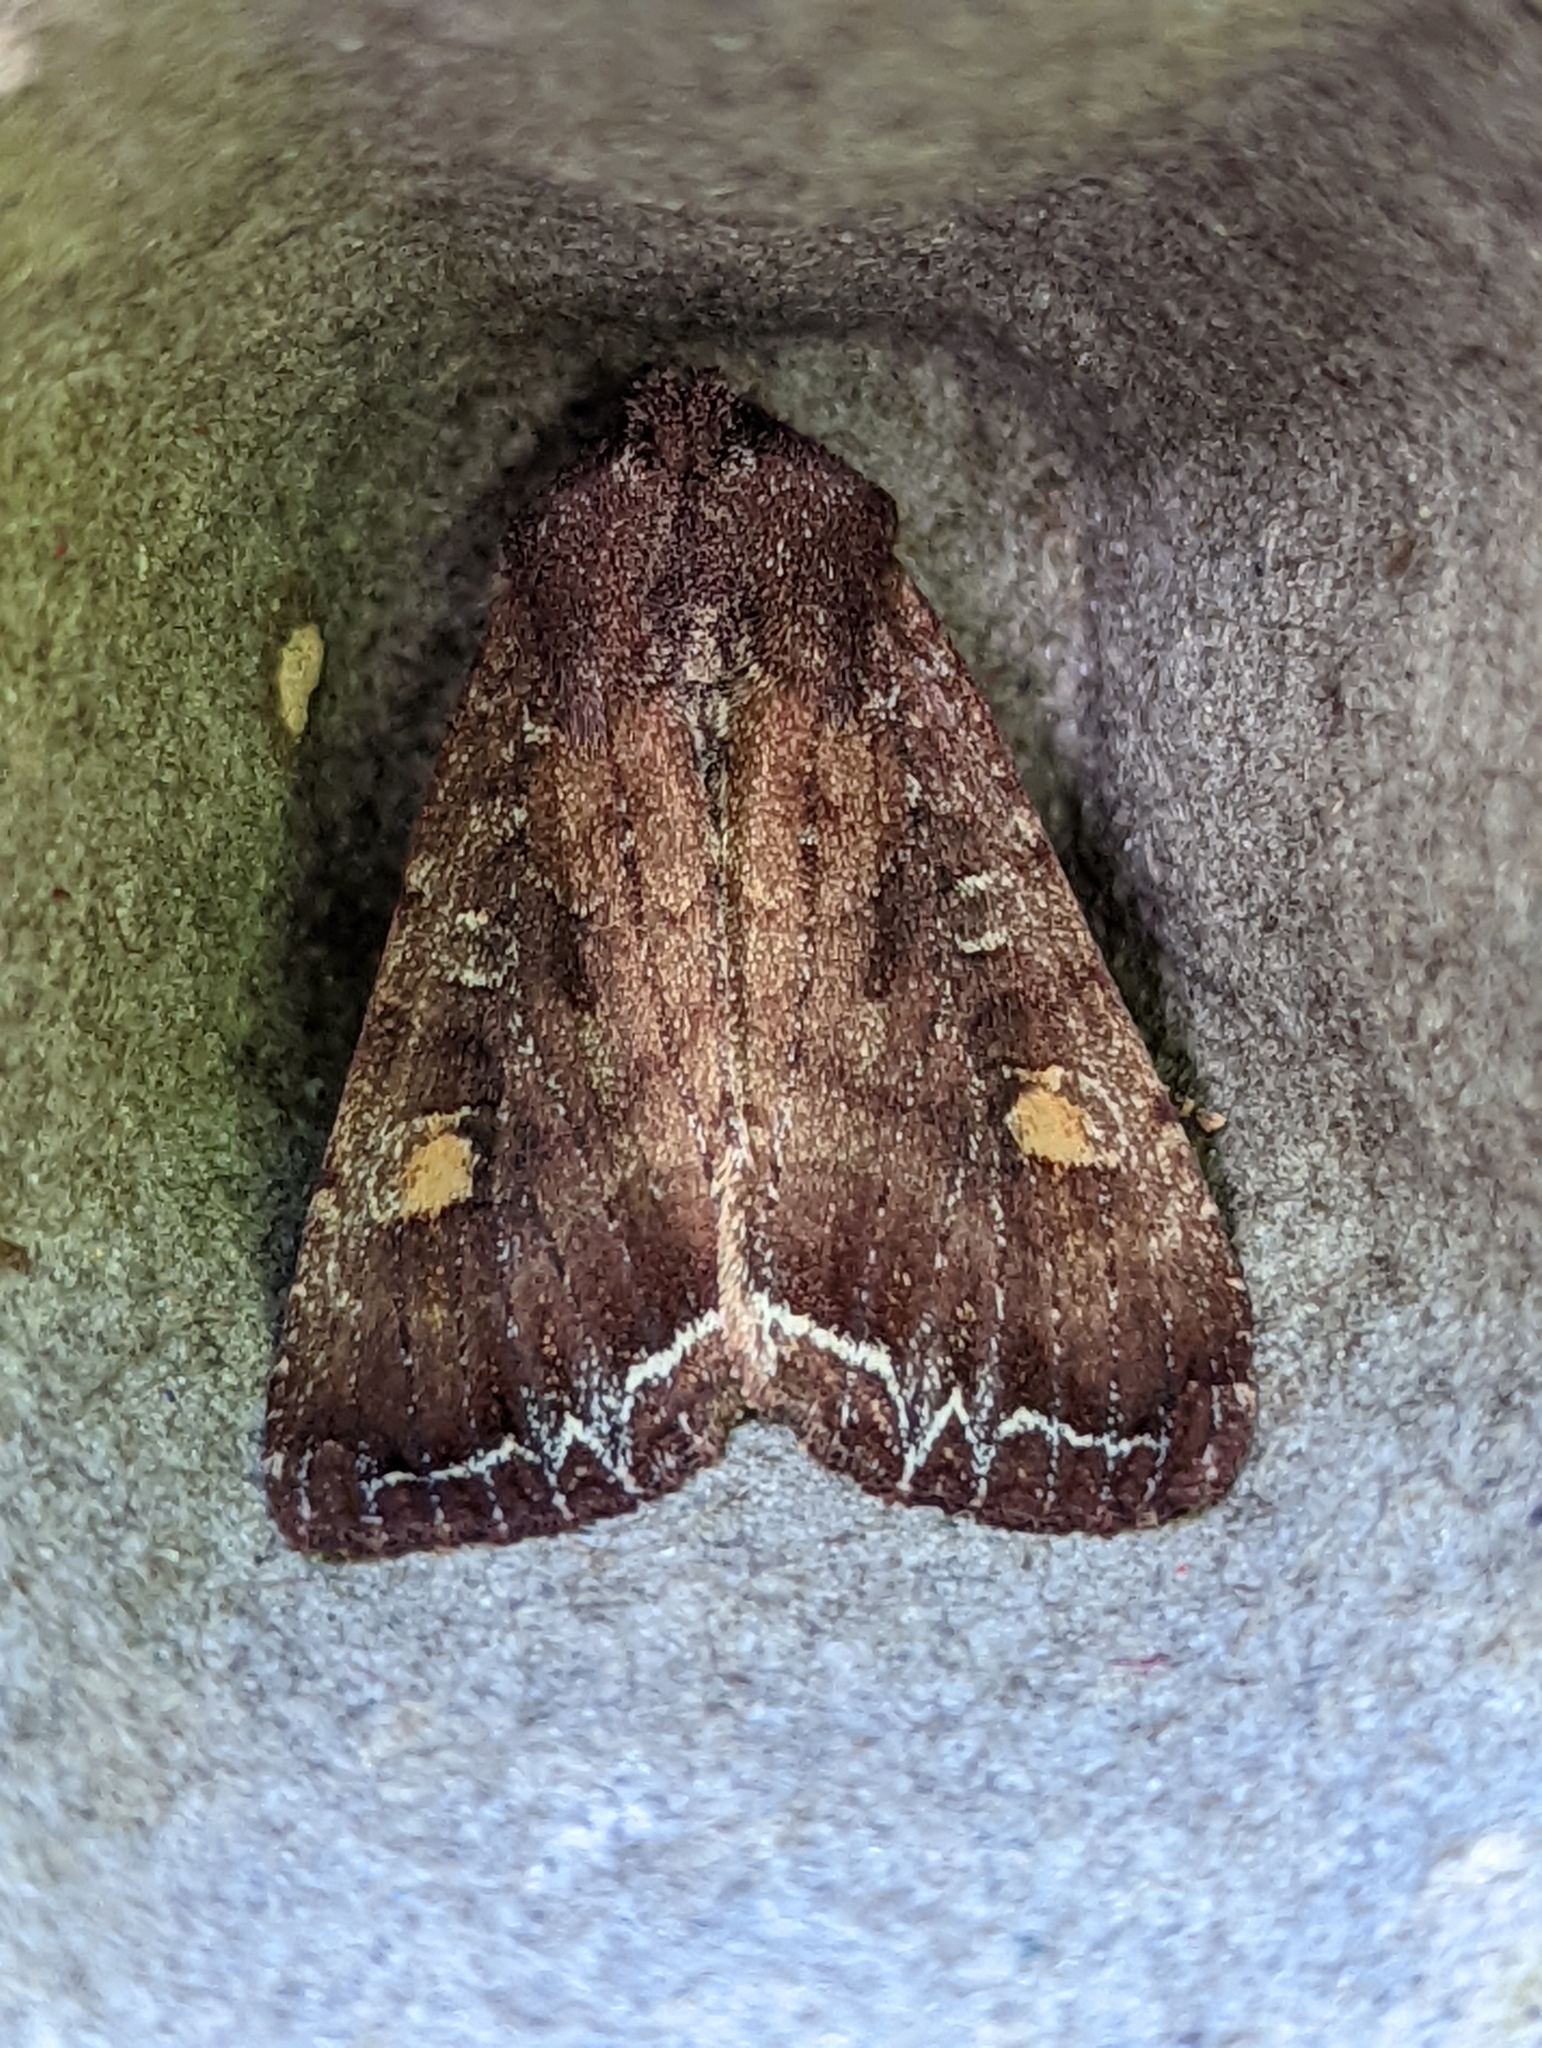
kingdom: Animalia
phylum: Arthropoda
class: Insecta
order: Lepidoptera
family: Noctuidae
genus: Lacanobia
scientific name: Lacanobia oleracea
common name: Bright-line brown-eye
